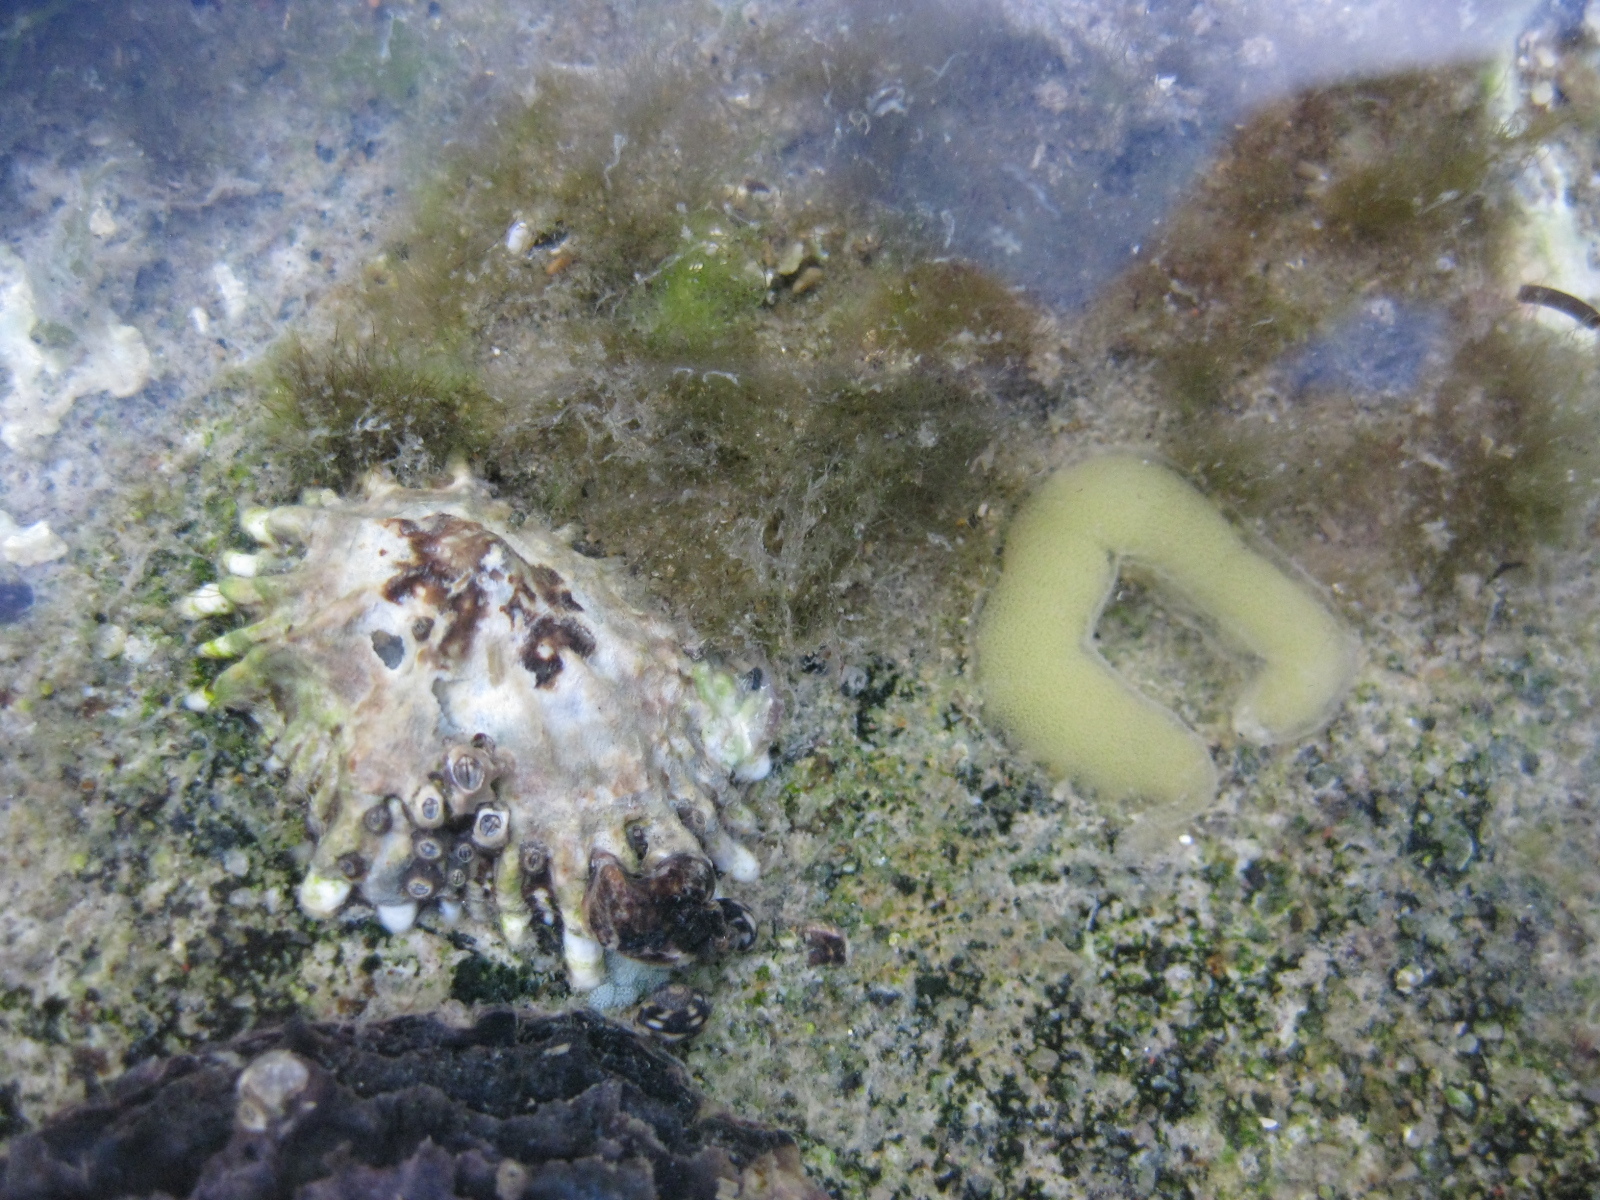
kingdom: Animalia
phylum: Mollusca
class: Gastropoda
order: Siphonariida
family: Siphonariidae
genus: Siphonaria
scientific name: Siphonaria australis
